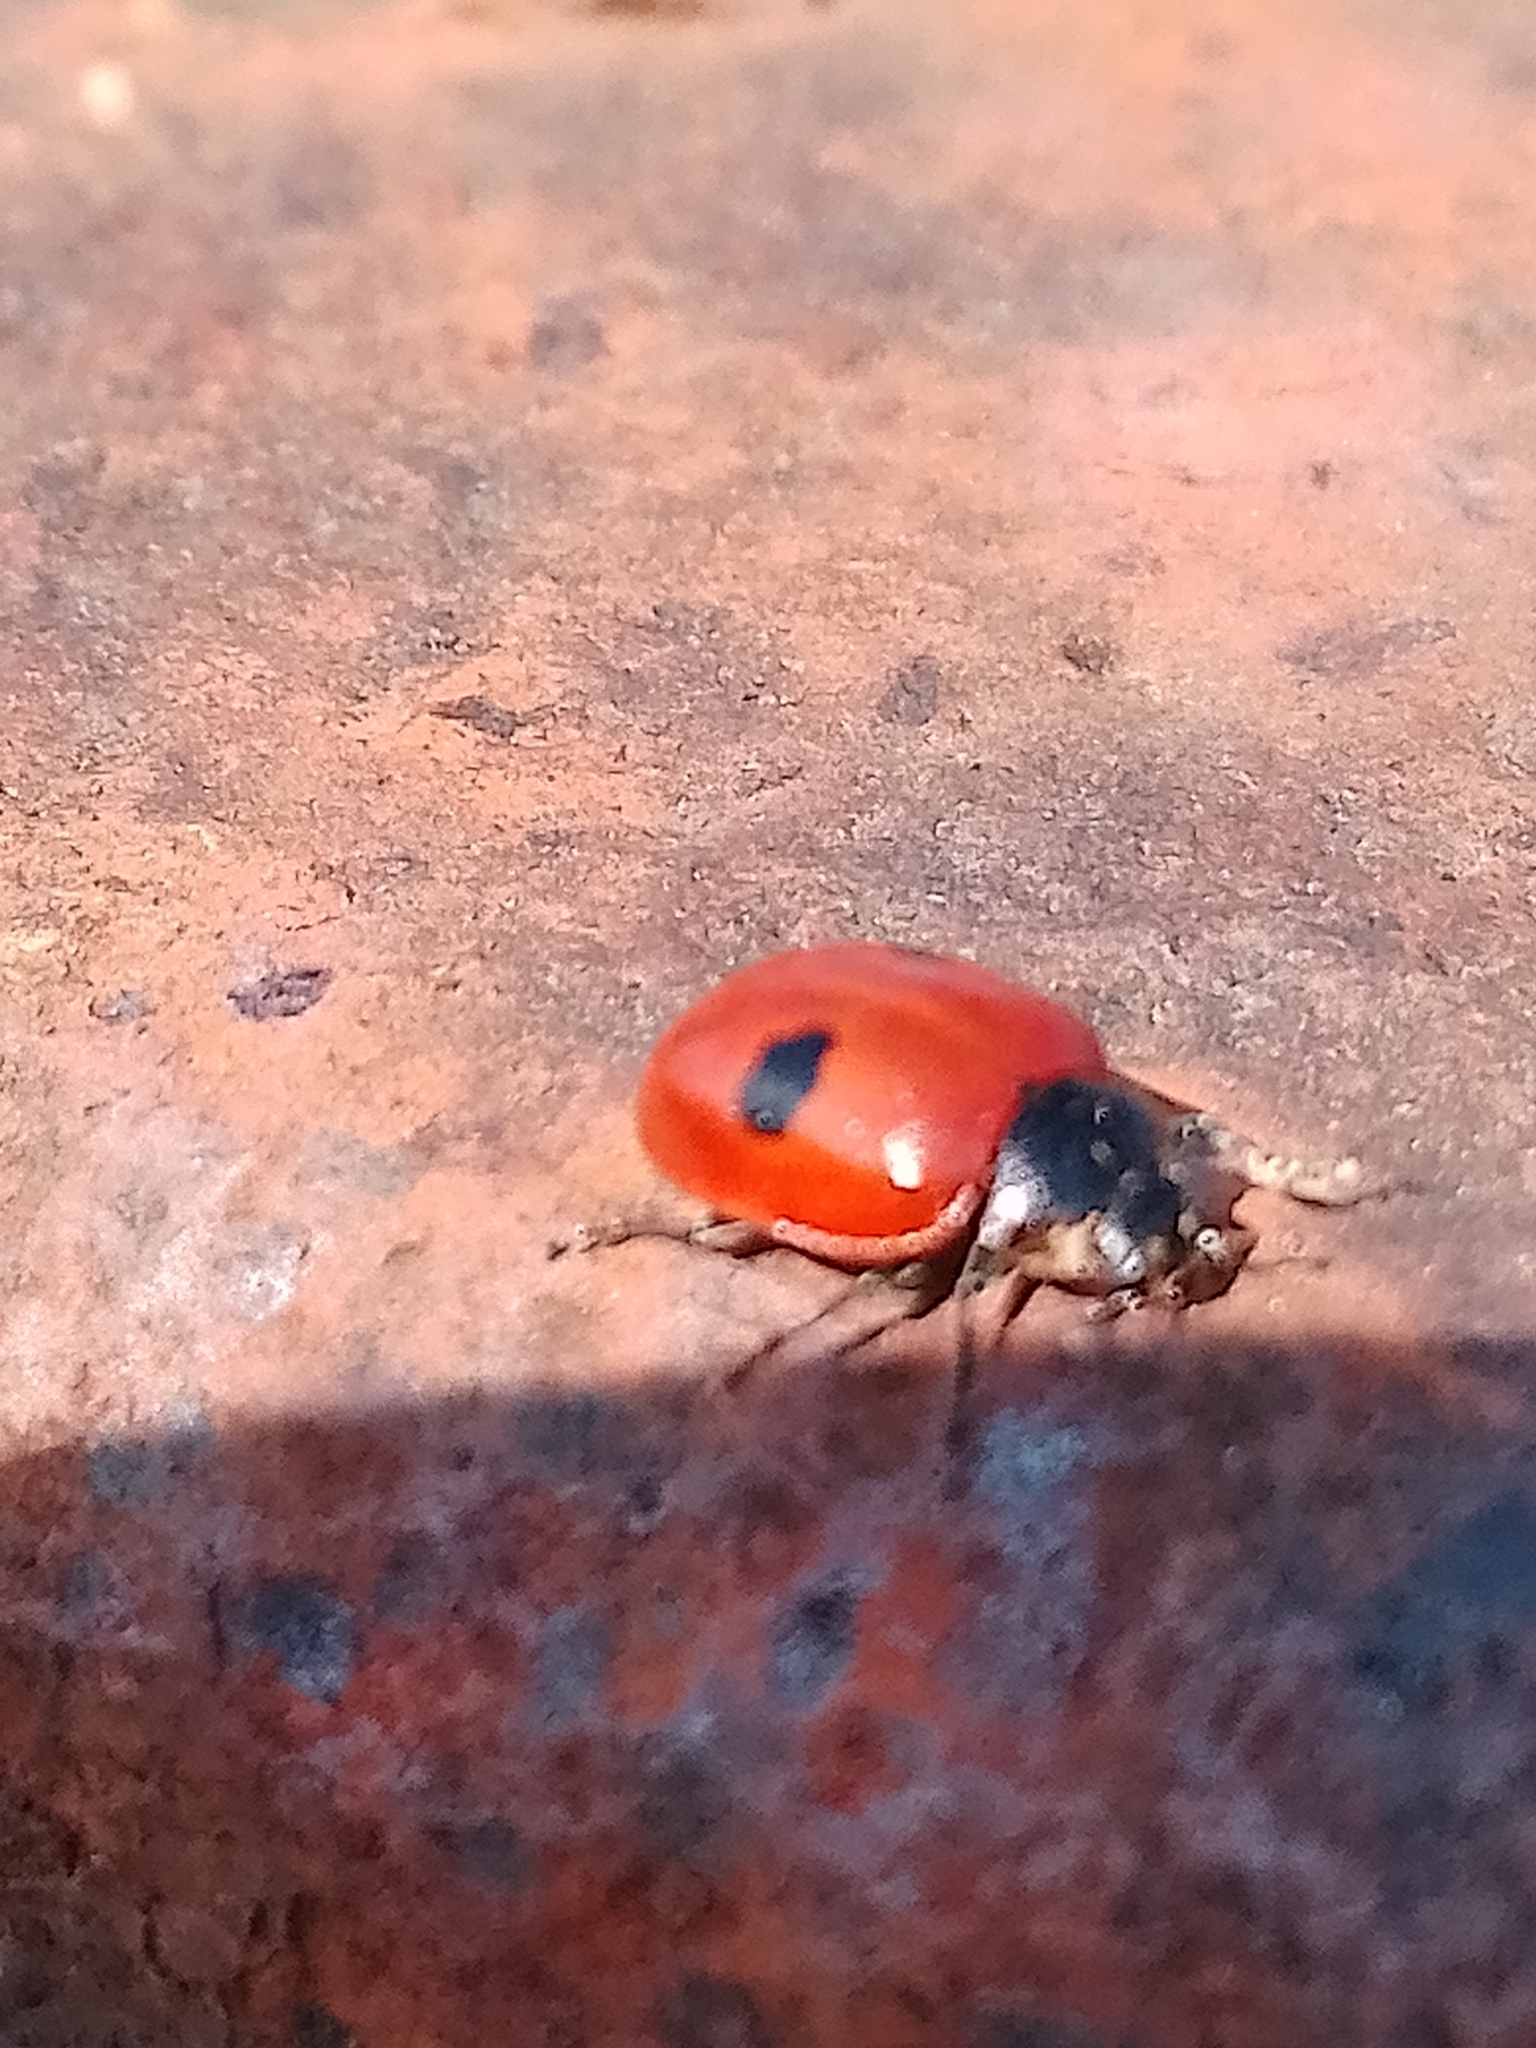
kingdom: Animalia
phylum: Arthropoda
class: Insecta
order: Coleoptera
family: Coccinellidae
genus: Adalia
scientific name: Adalia bipunctata
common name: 2-spot ladybird
